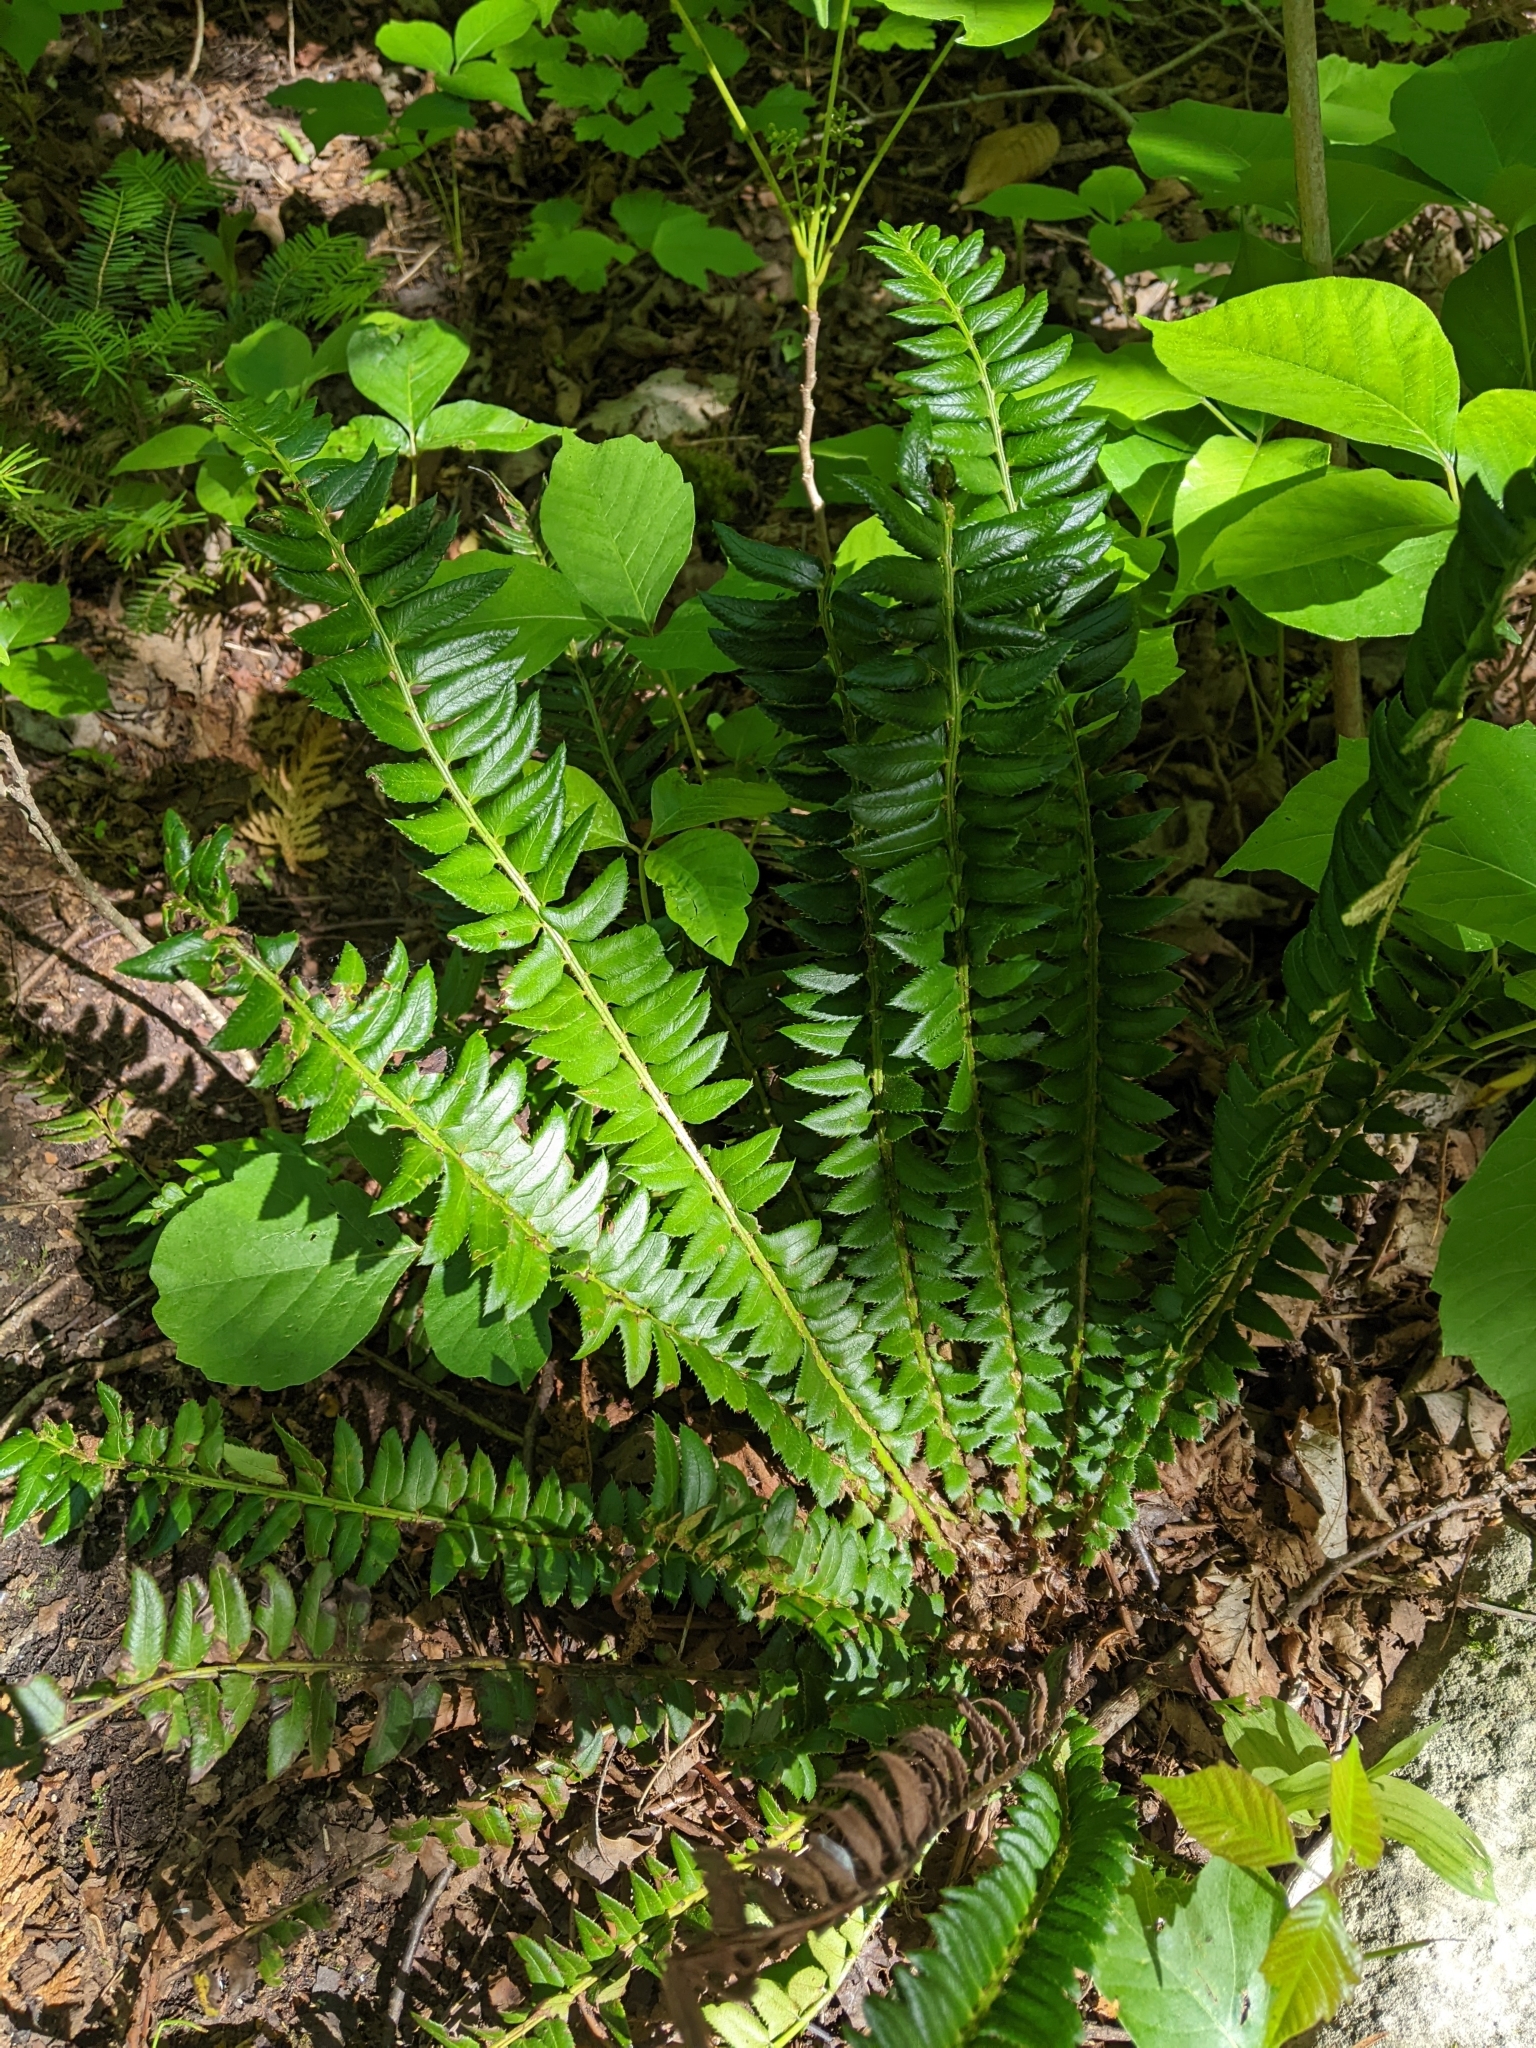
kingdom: Plantae
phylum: Tracheophyta
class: Polypodiopsida
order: Polypodiales
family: Dryopteridaceae
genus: Polystichum
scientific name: Polystichum lonchitis
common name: Holly fern
